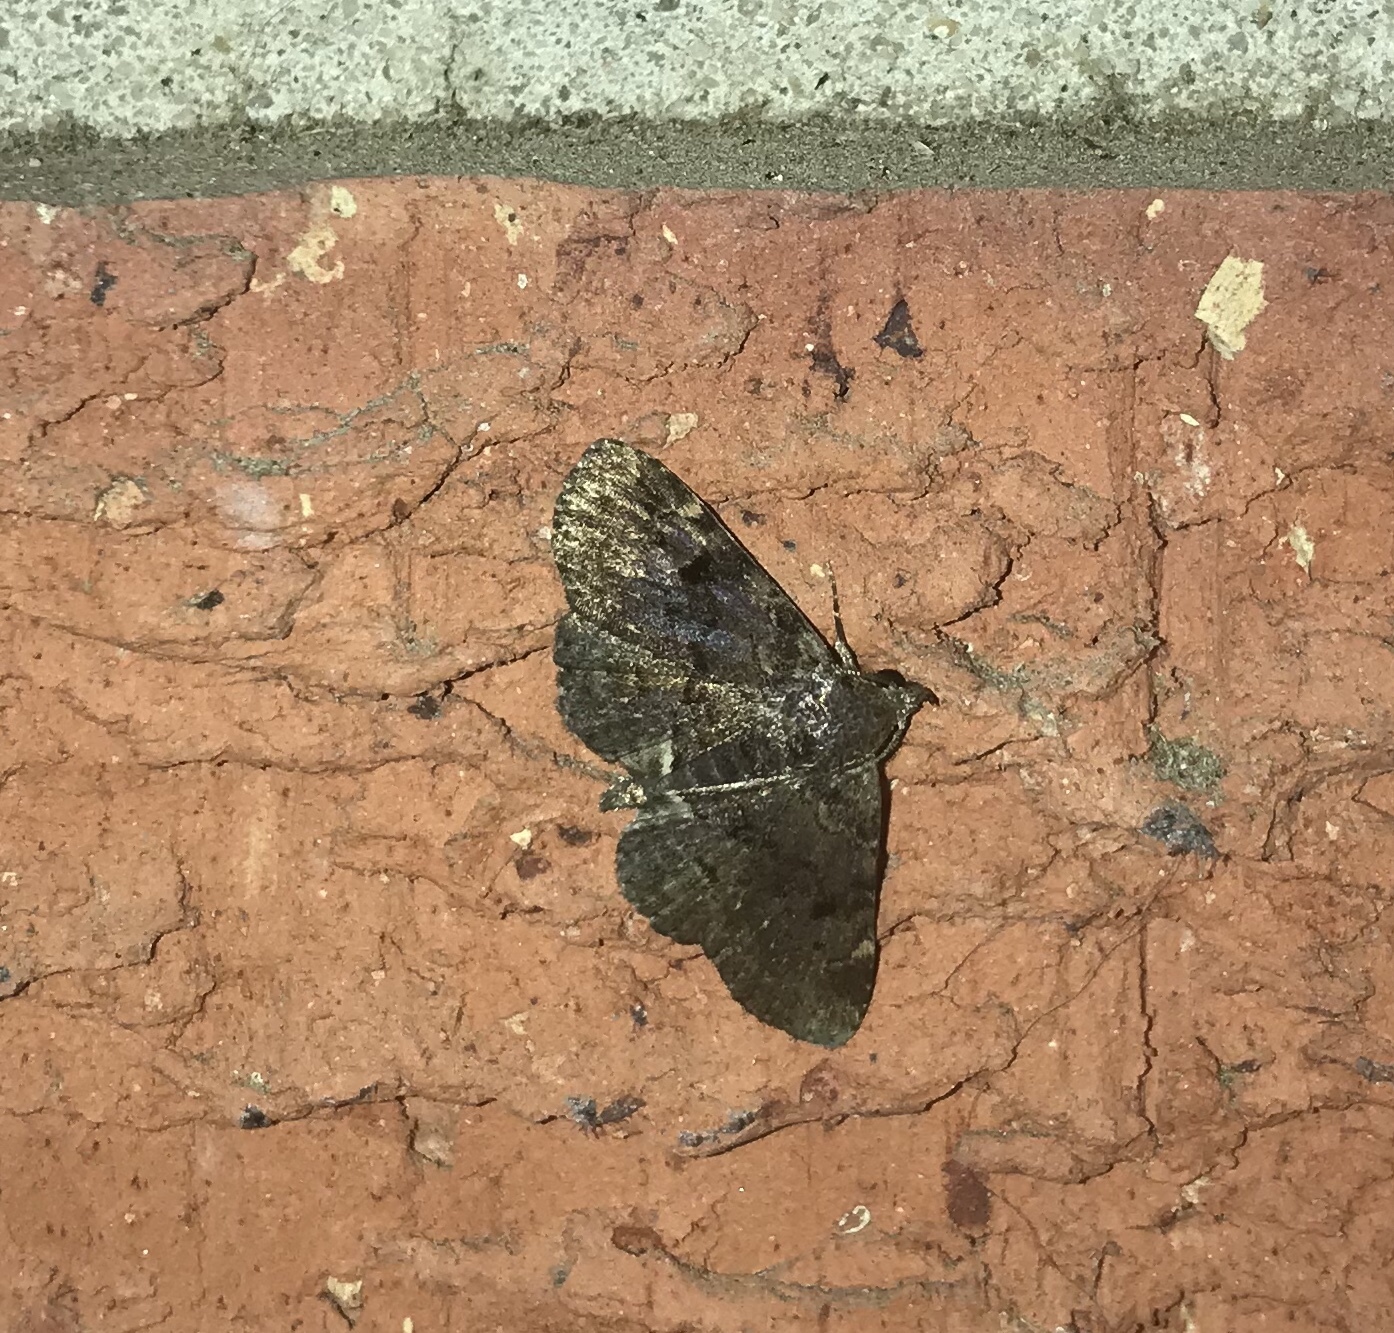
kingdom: Animalia
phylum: Arthropoda
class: Insecta
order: Lepidoptera
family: Erebidae
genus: Metalectra
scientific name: Metalectra quadrisignata
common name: Four-spotted fungus moth
